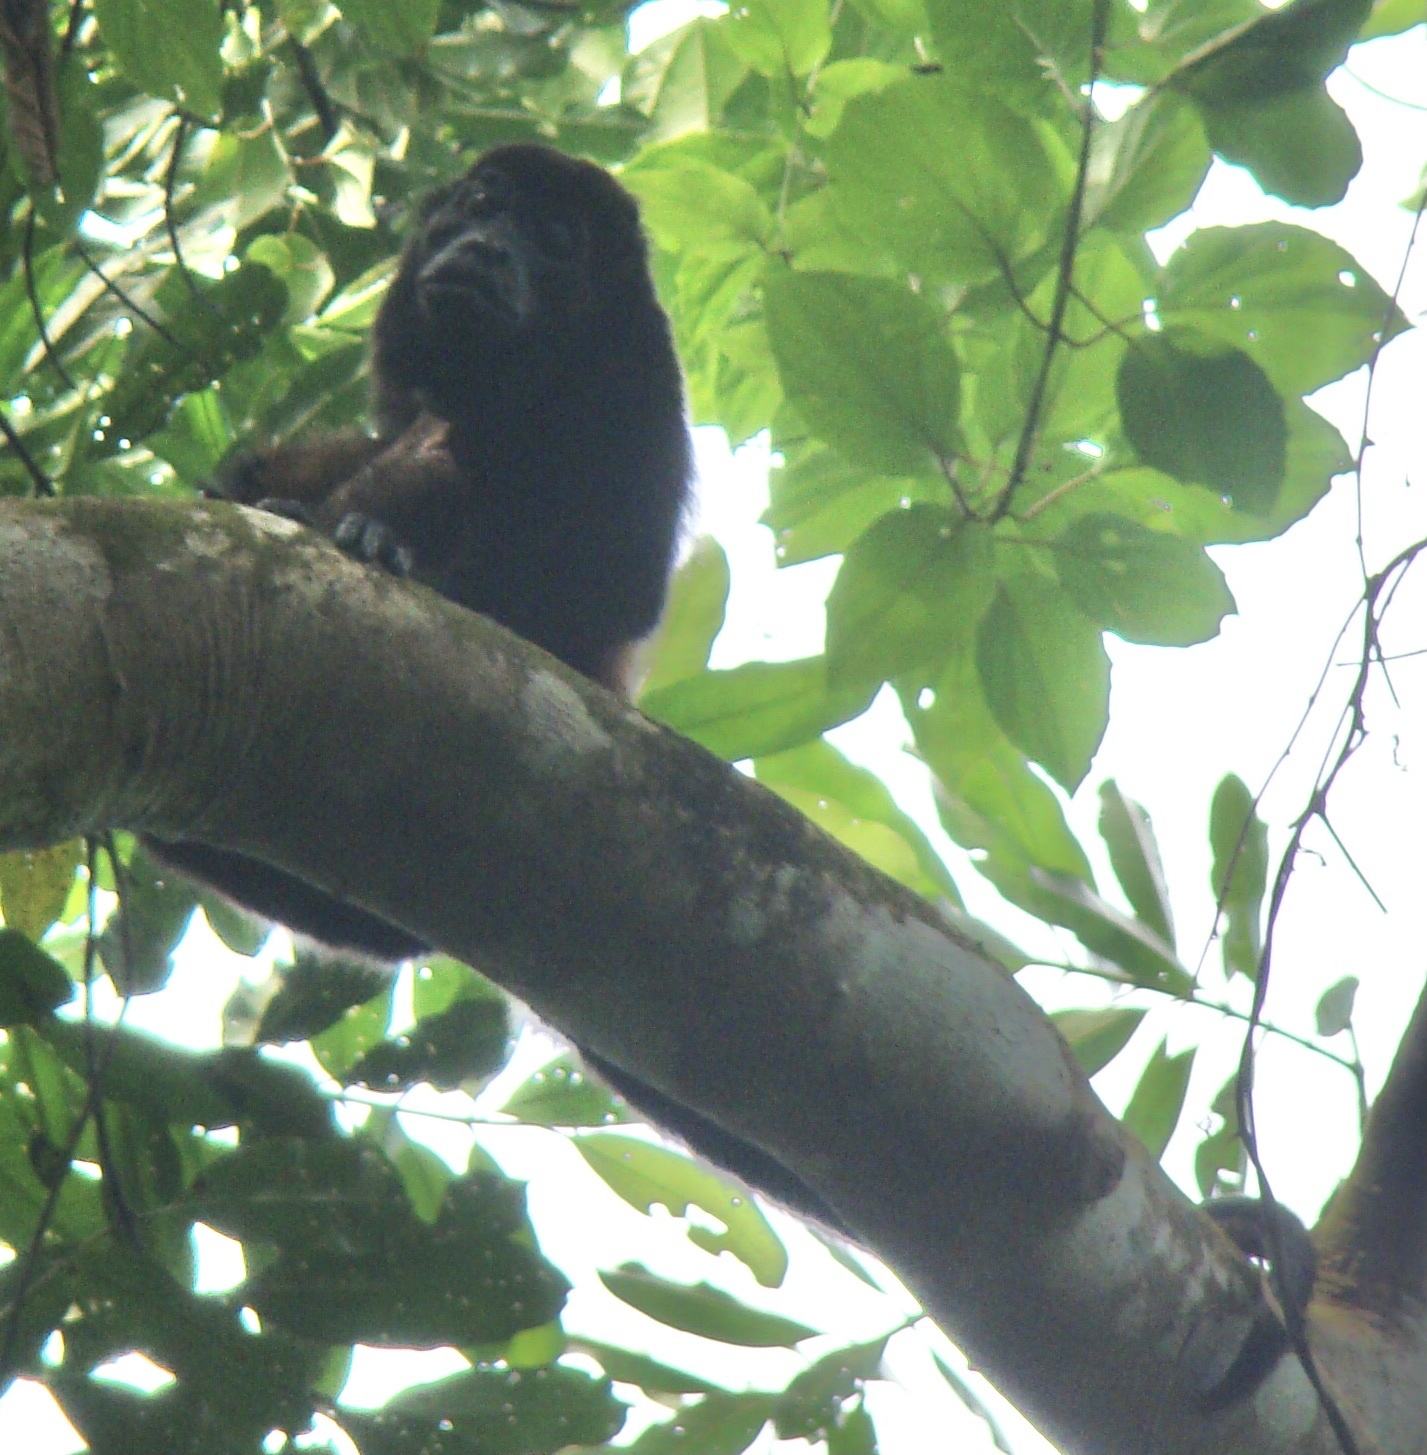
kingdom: Animalia
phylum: Chordata
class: Mammalia
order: Primates
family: Atelidae
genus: Alouatta
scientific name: Alouatta palliata
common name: Mantled howler
